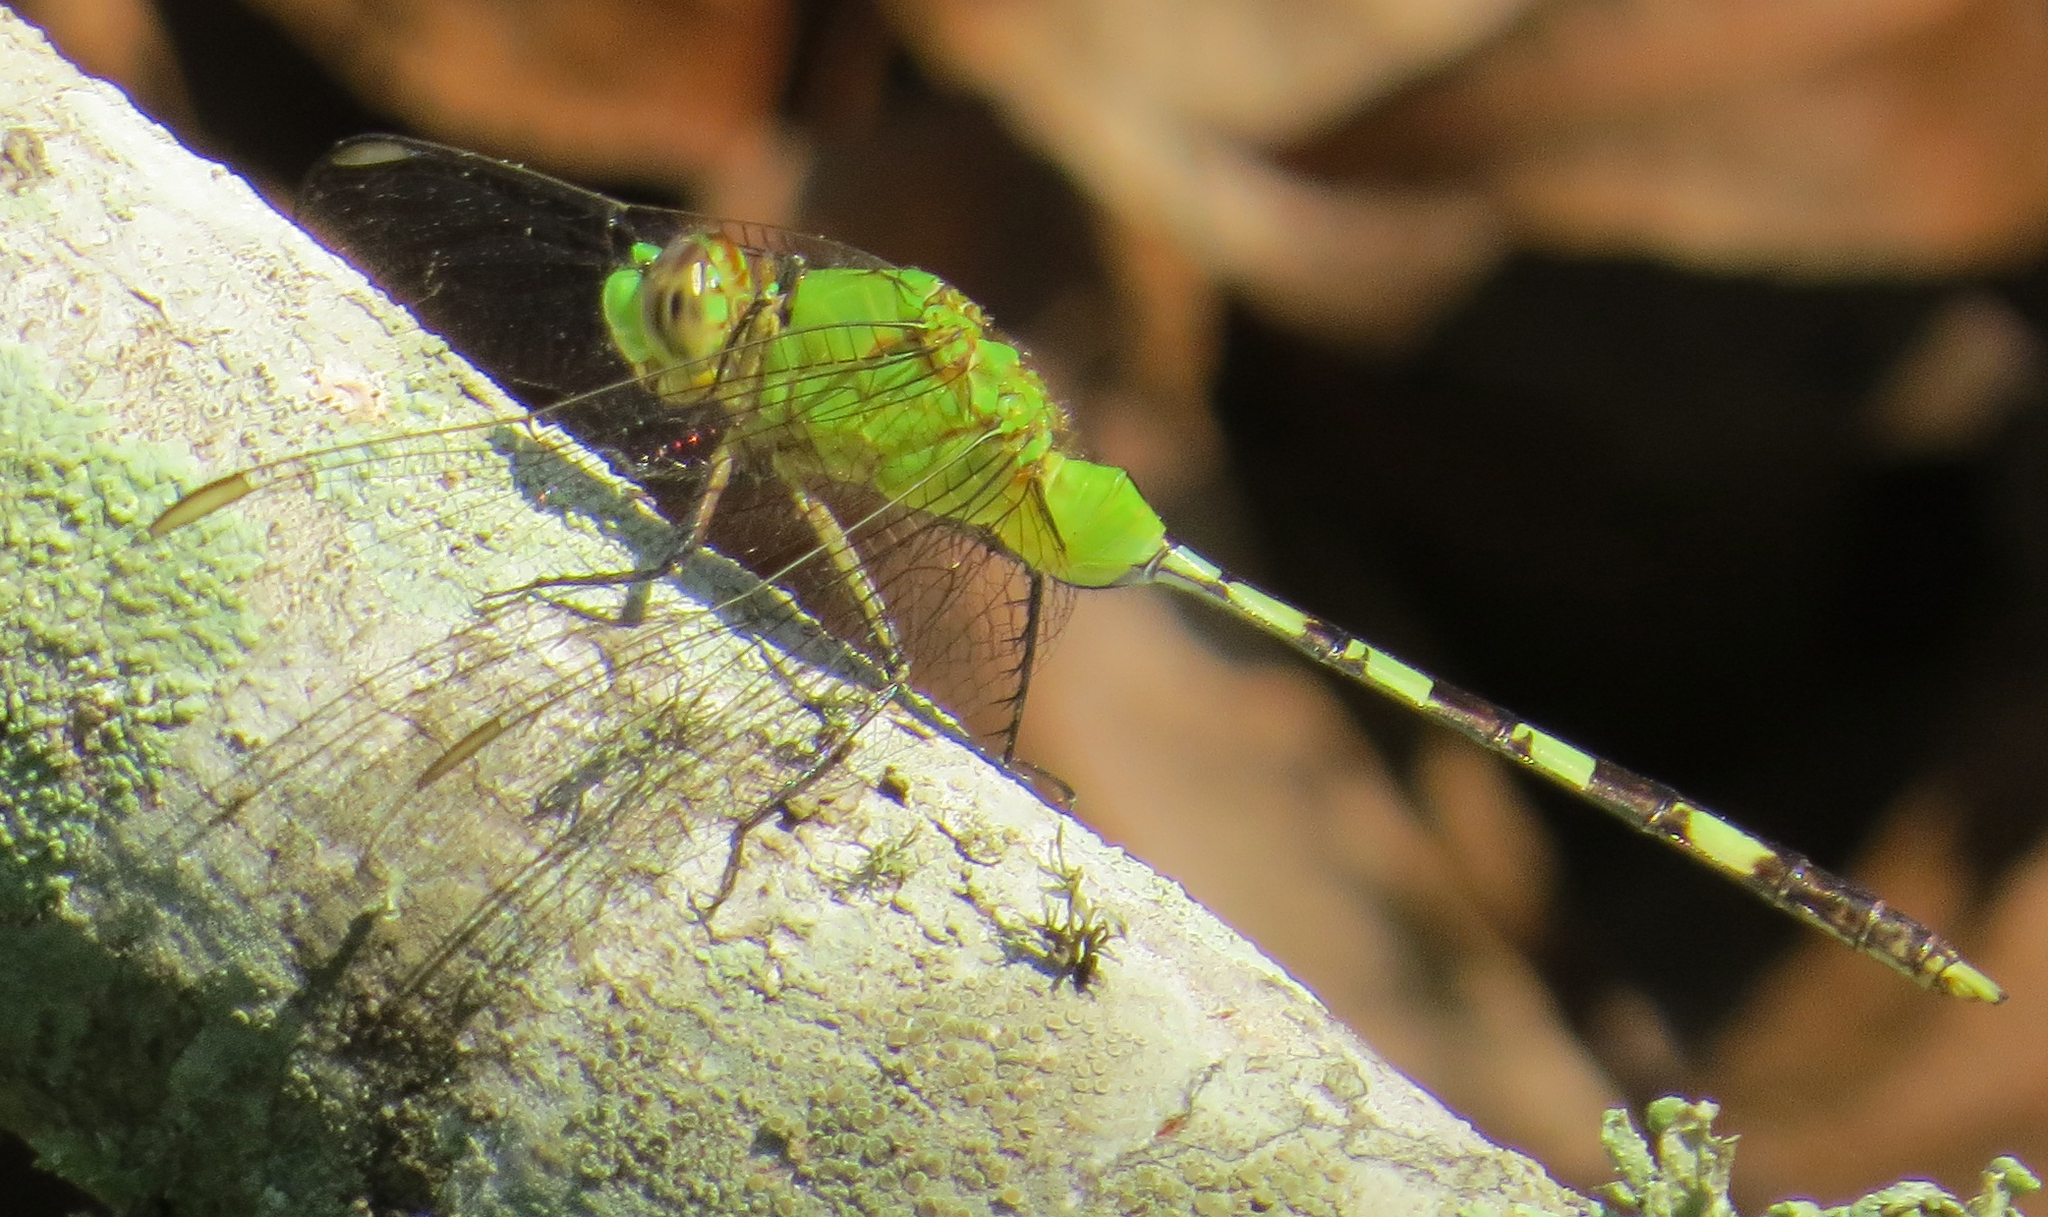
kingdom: Animalia
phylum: Arthropoda
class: Insecta
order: Odonata
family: Libellulidae
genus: Erythemis
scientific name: Erythemis vesiculosa
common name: Great pondhawk
